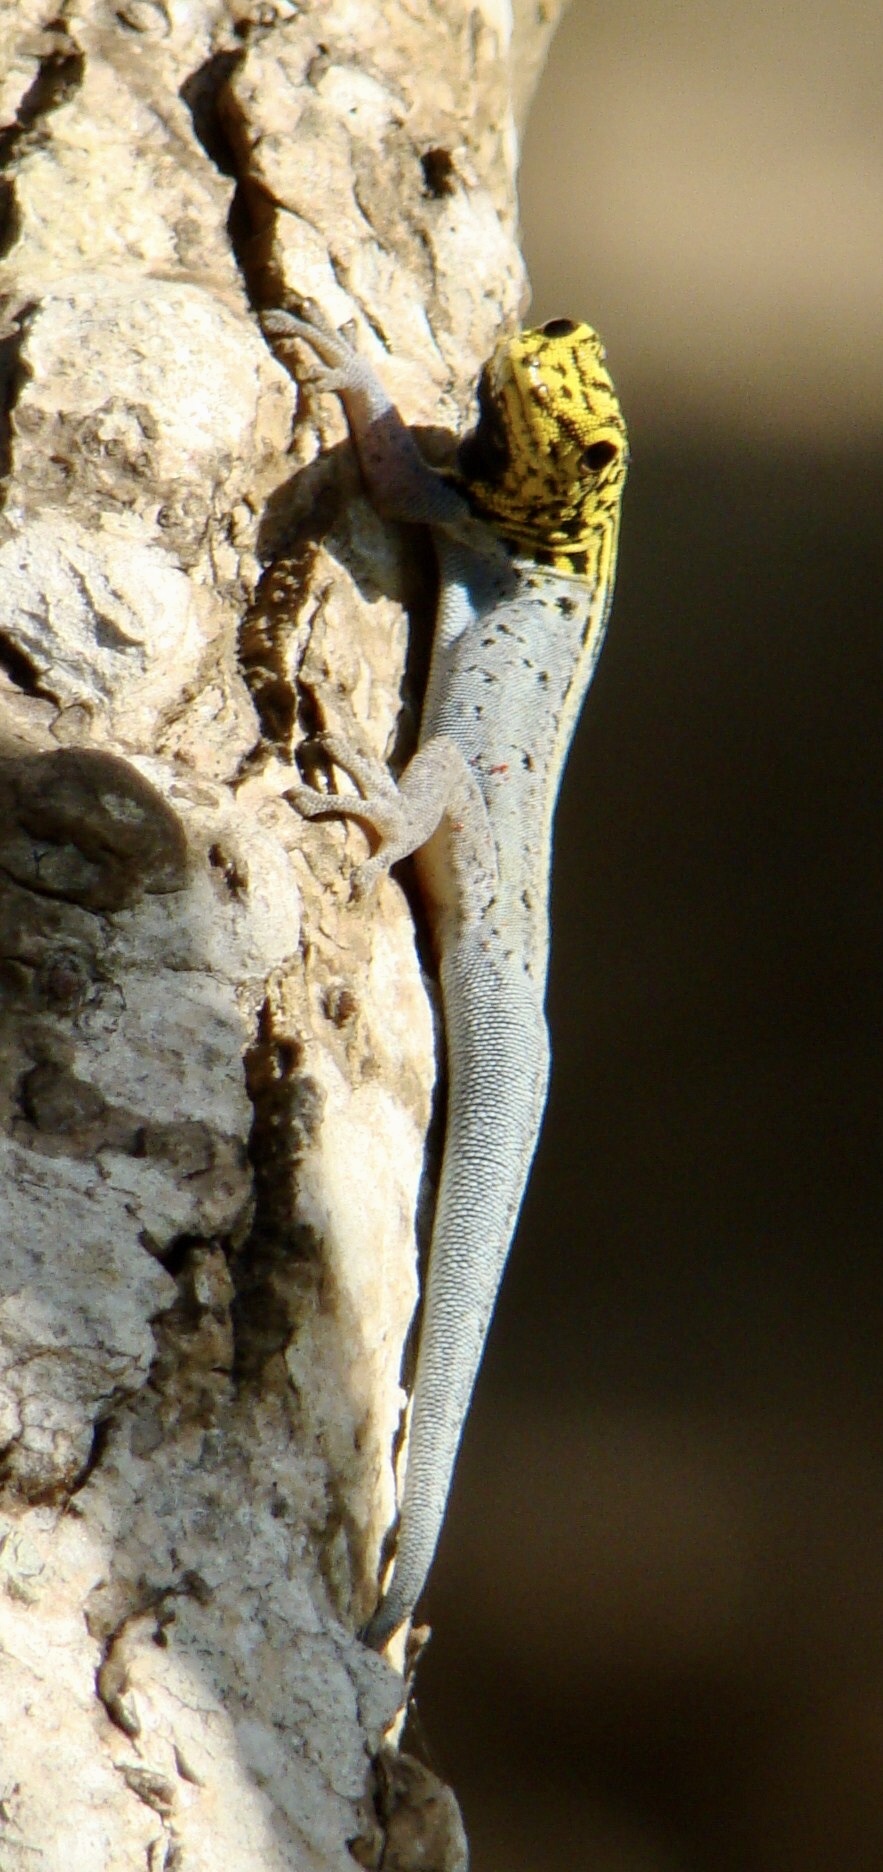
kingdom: Animalia
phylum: Chordata
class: Squamata
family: Gekkonidae
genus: Lygodactylus
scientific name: Lygodactylus picturatus
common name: Painted dwarf gecko
